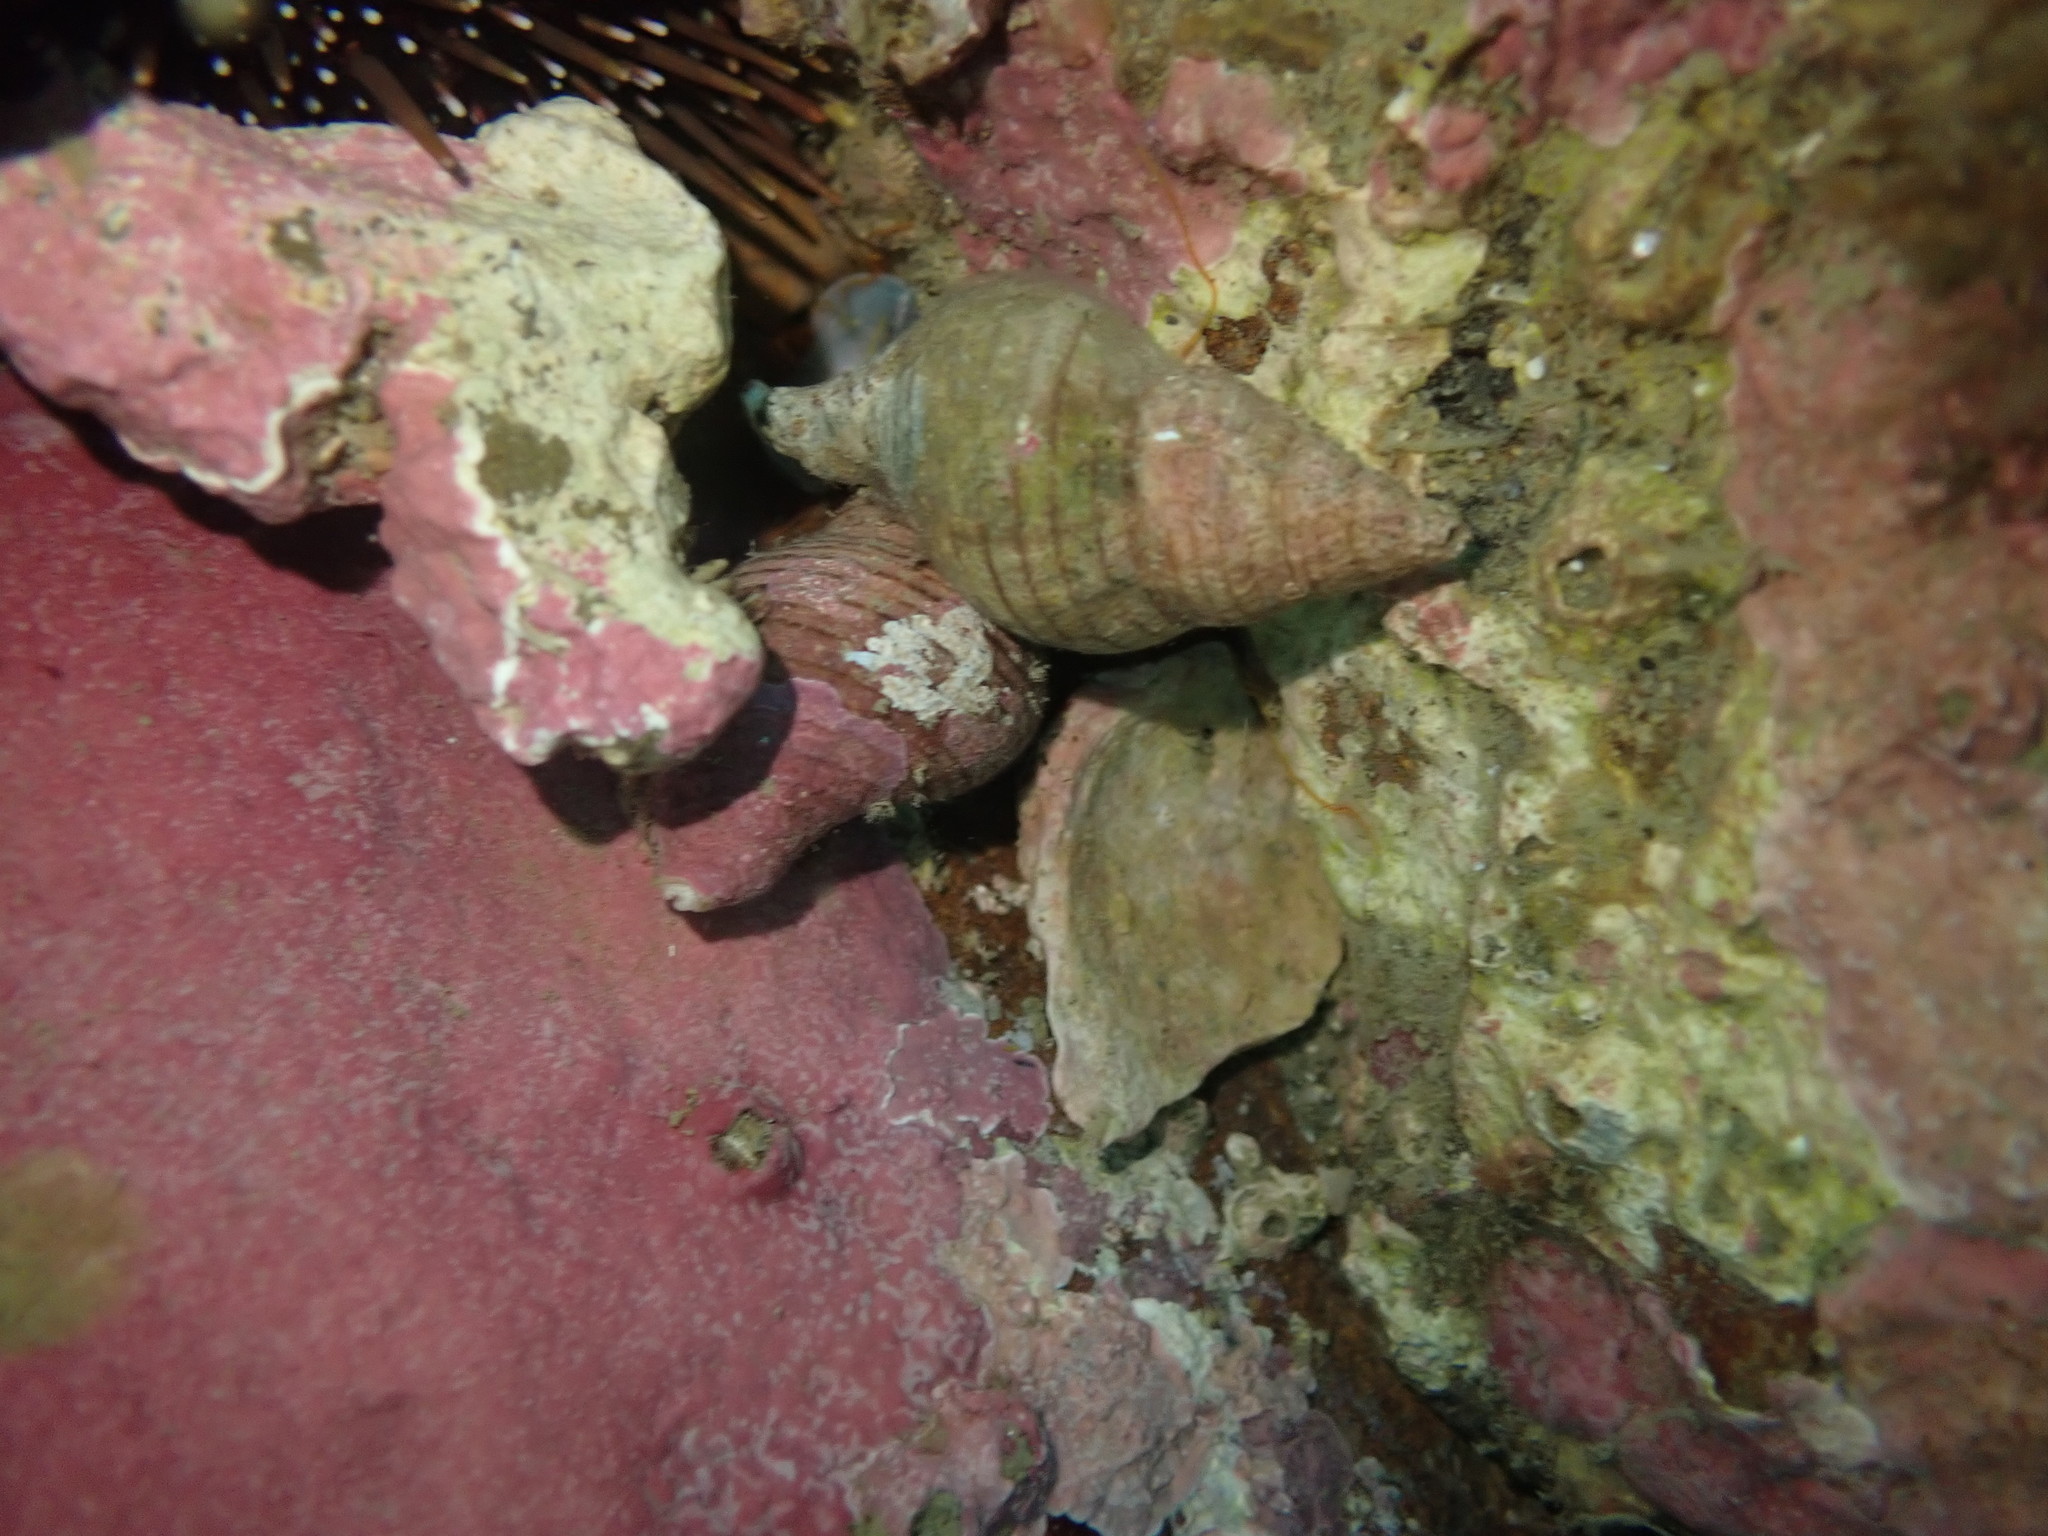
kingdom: Animalia
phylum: Mollusca
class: Gastropoda
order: Neogastropoda
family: Tudiclidae
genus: Buccinulum
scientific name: Buccinulum linea
